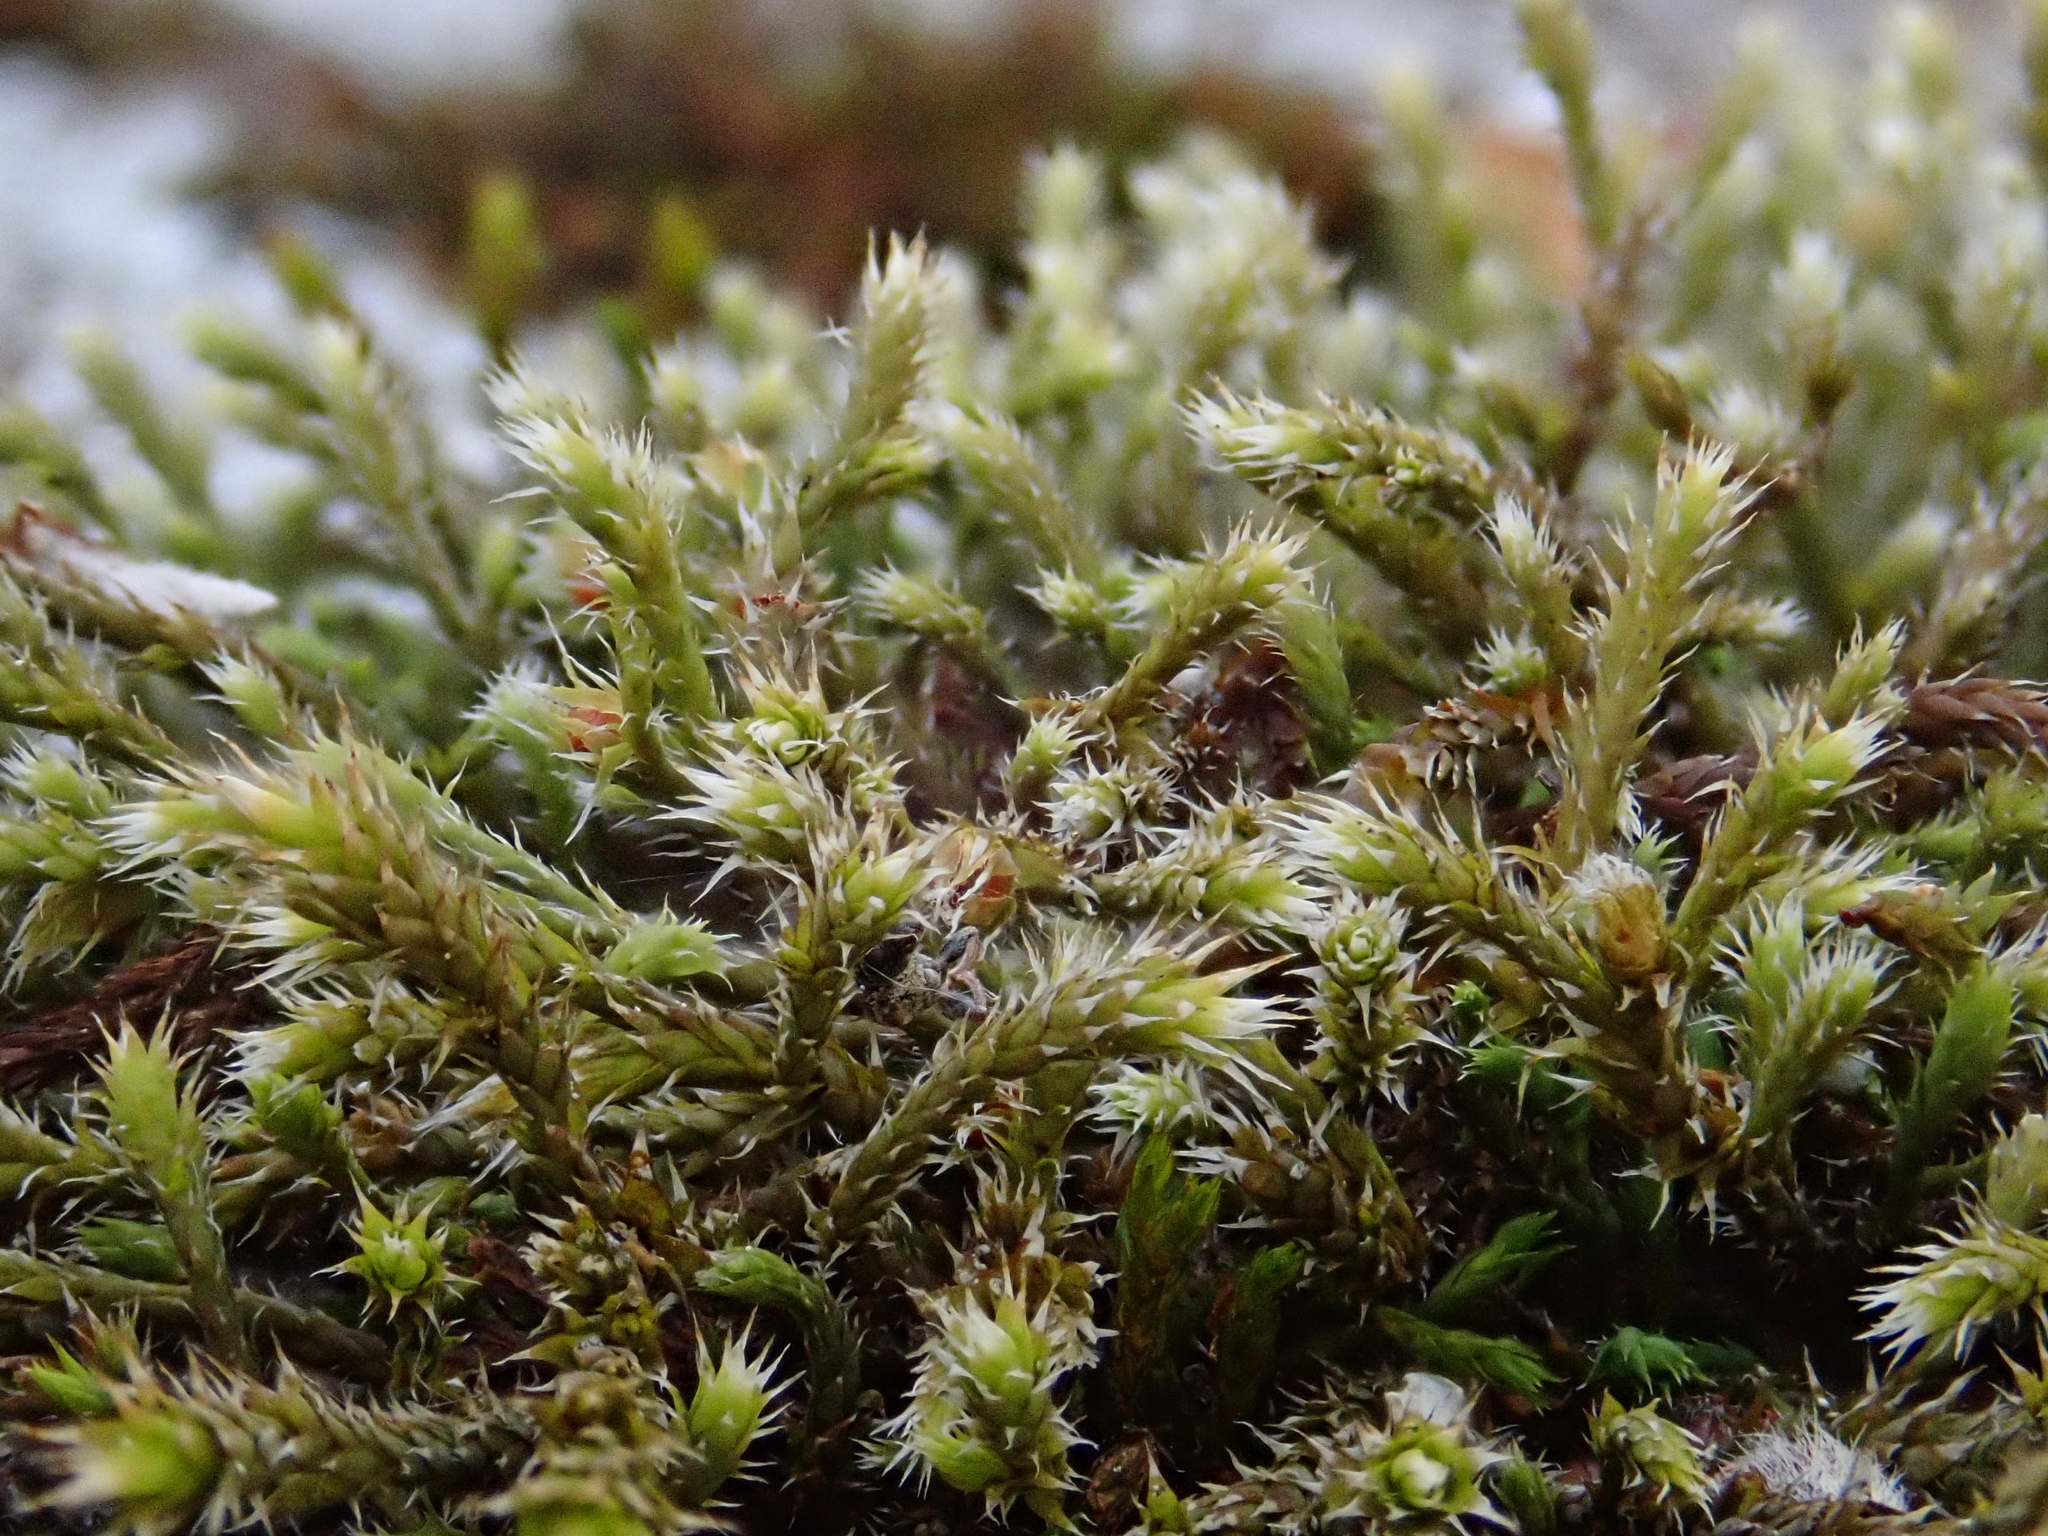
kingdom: Plantae
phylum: Bryophyta
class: Bryopsida
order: Hedwigiales
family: Hedwigiaceae
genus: Hedwigia
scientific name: Hedwigia ciliata
